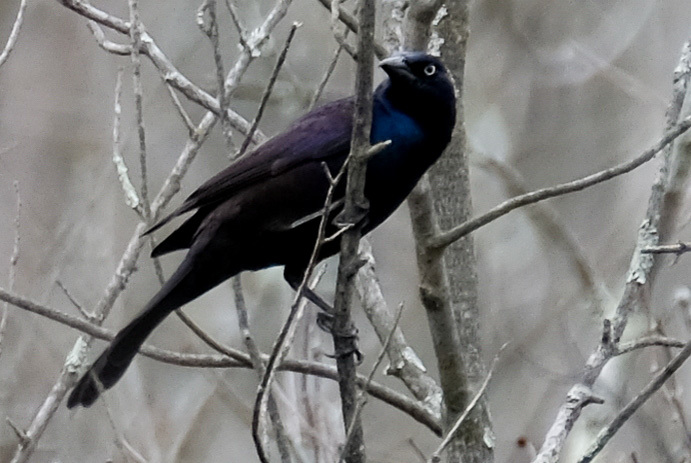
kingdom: Animalia
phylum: Chordata
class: Aves
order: Passeriformes
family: Icteridae
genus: Quiscalus
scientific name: Quiscalus quiscula
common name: Common grackle
